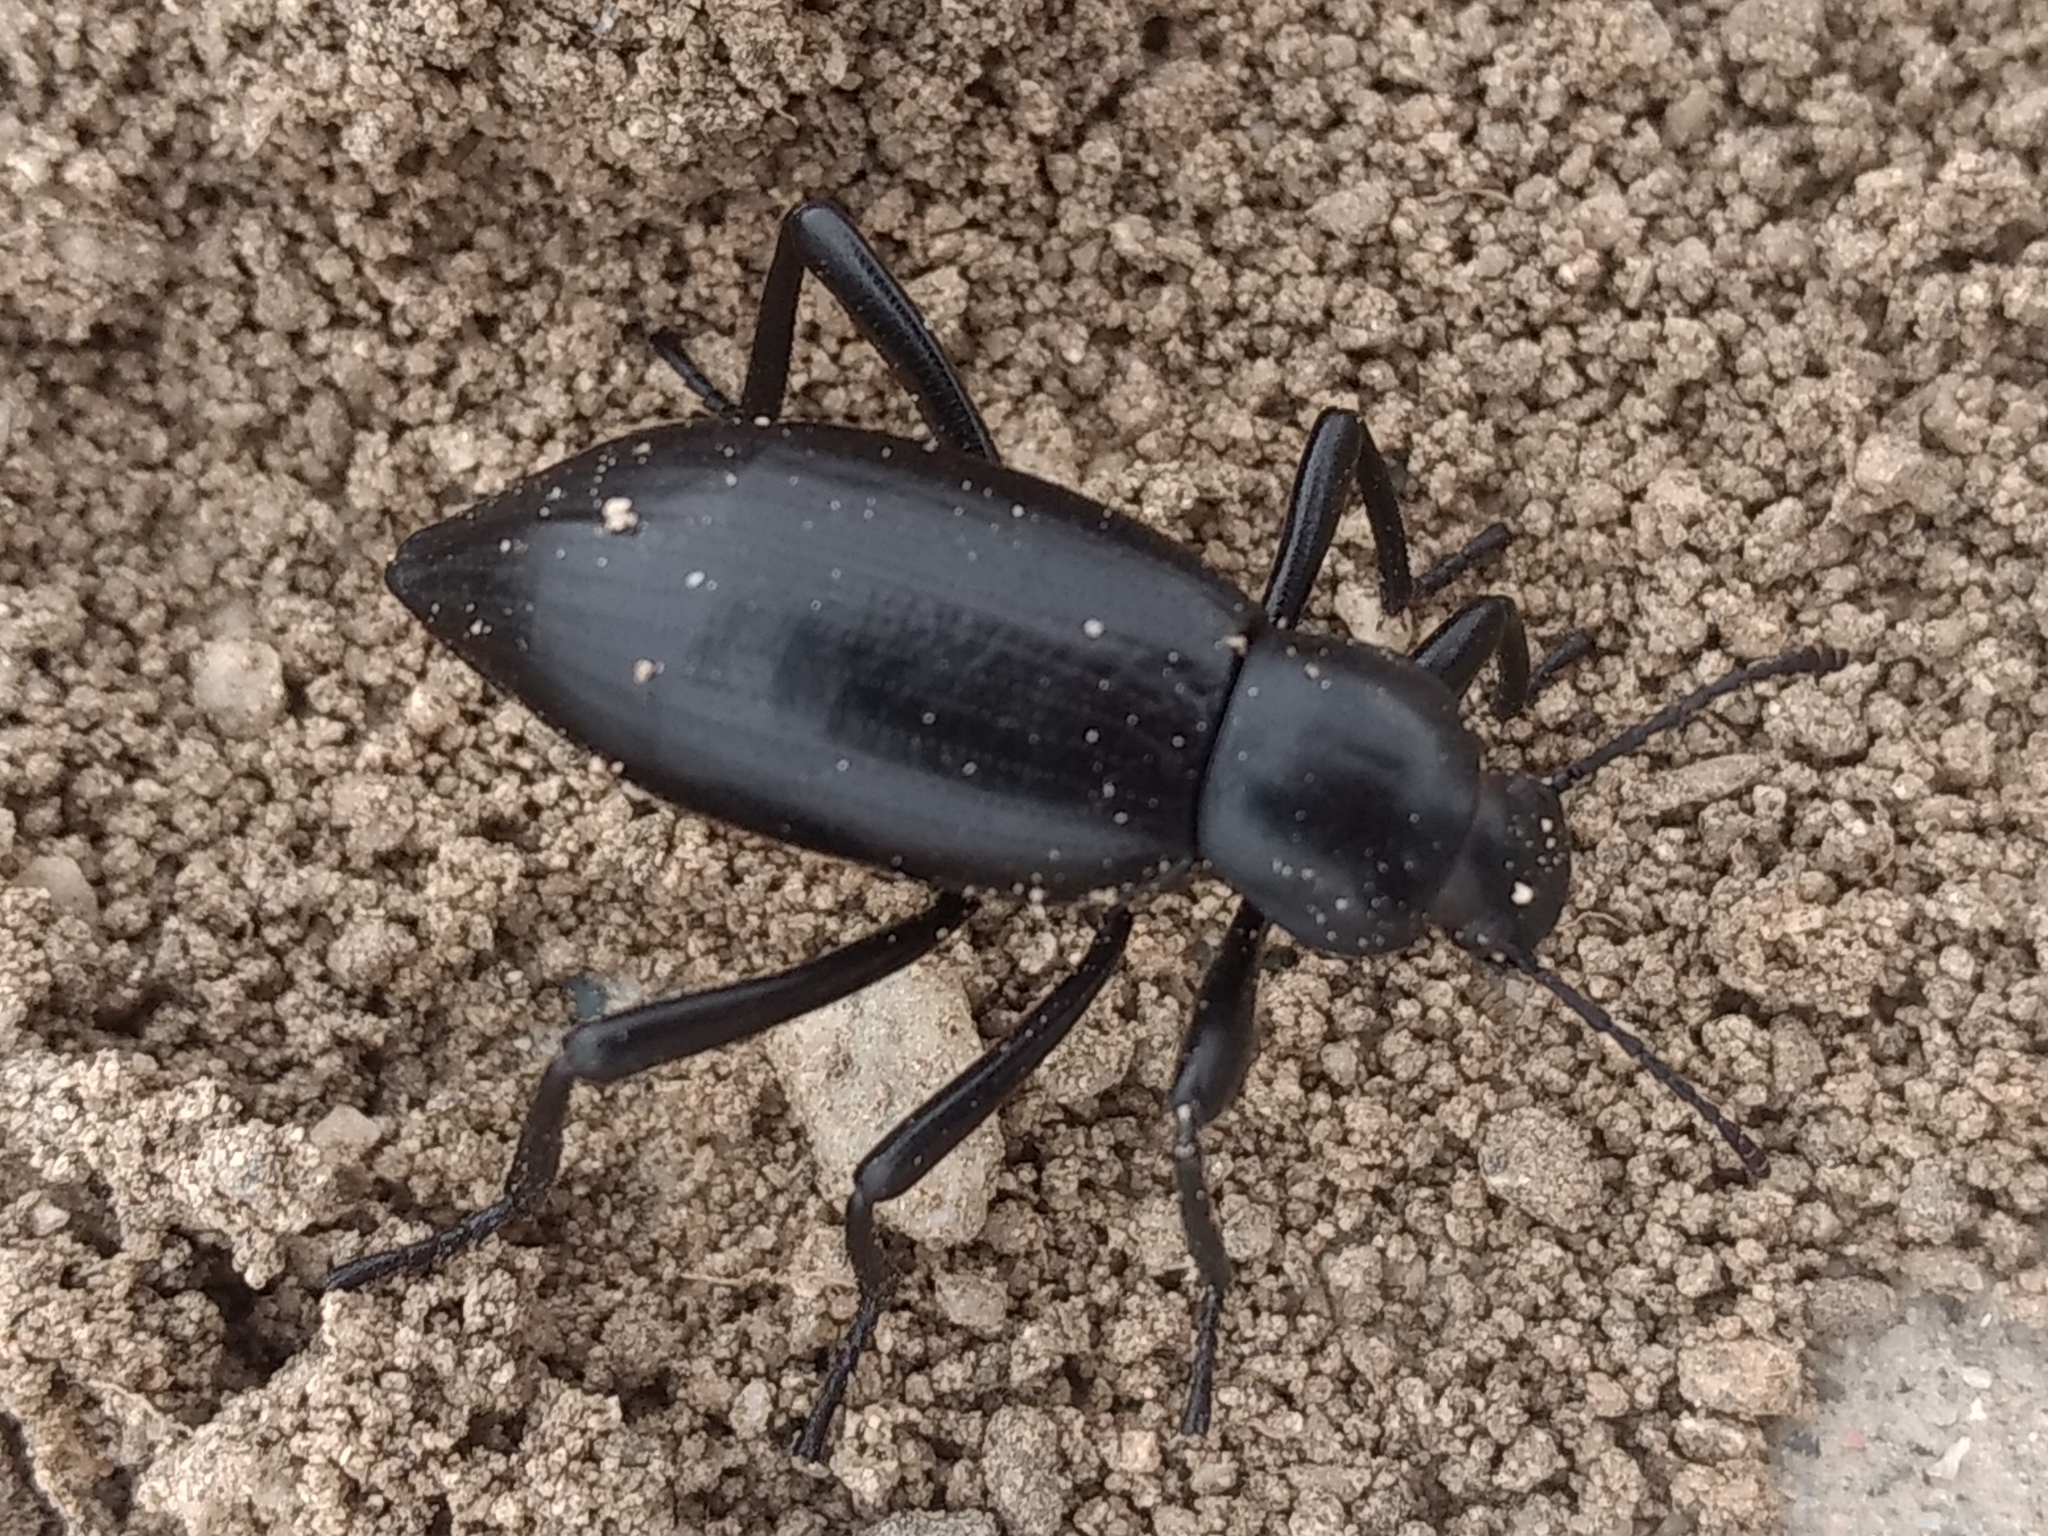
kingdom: Animalia
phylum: Arthropoda
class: Insecta
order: Coleoptera
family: Tenebrionidae
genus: Eleodes
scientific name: Eleodes gracilis
